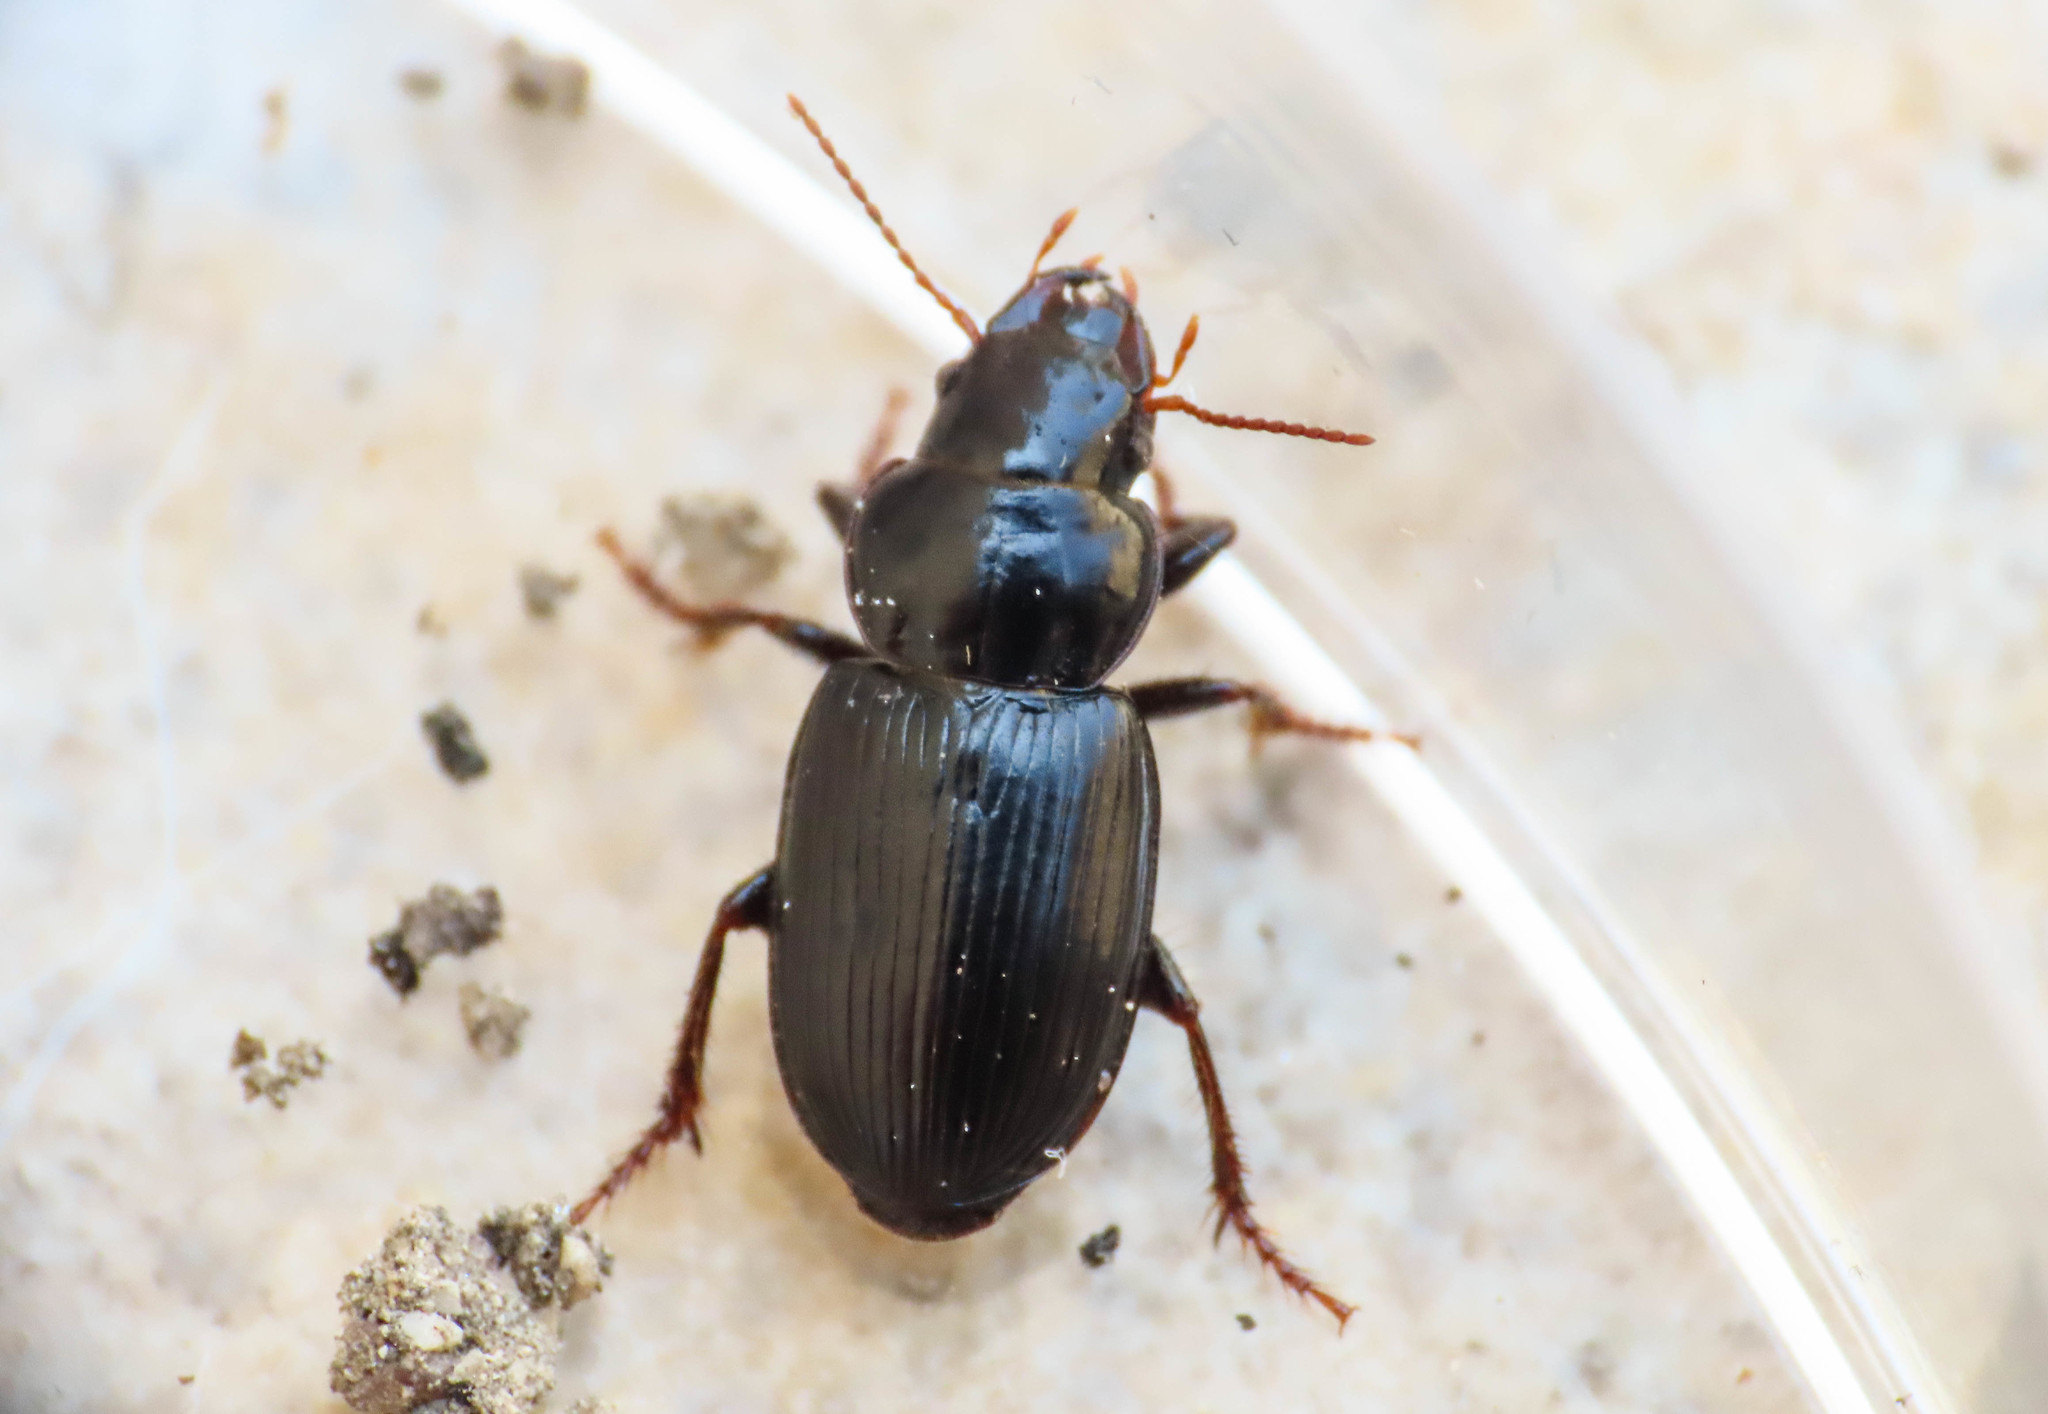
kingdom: Animalia
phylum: Arthropoda
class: Insecta
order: Coleoptera
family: Carabidae
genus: Pangus
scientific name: Pangus scaritides
